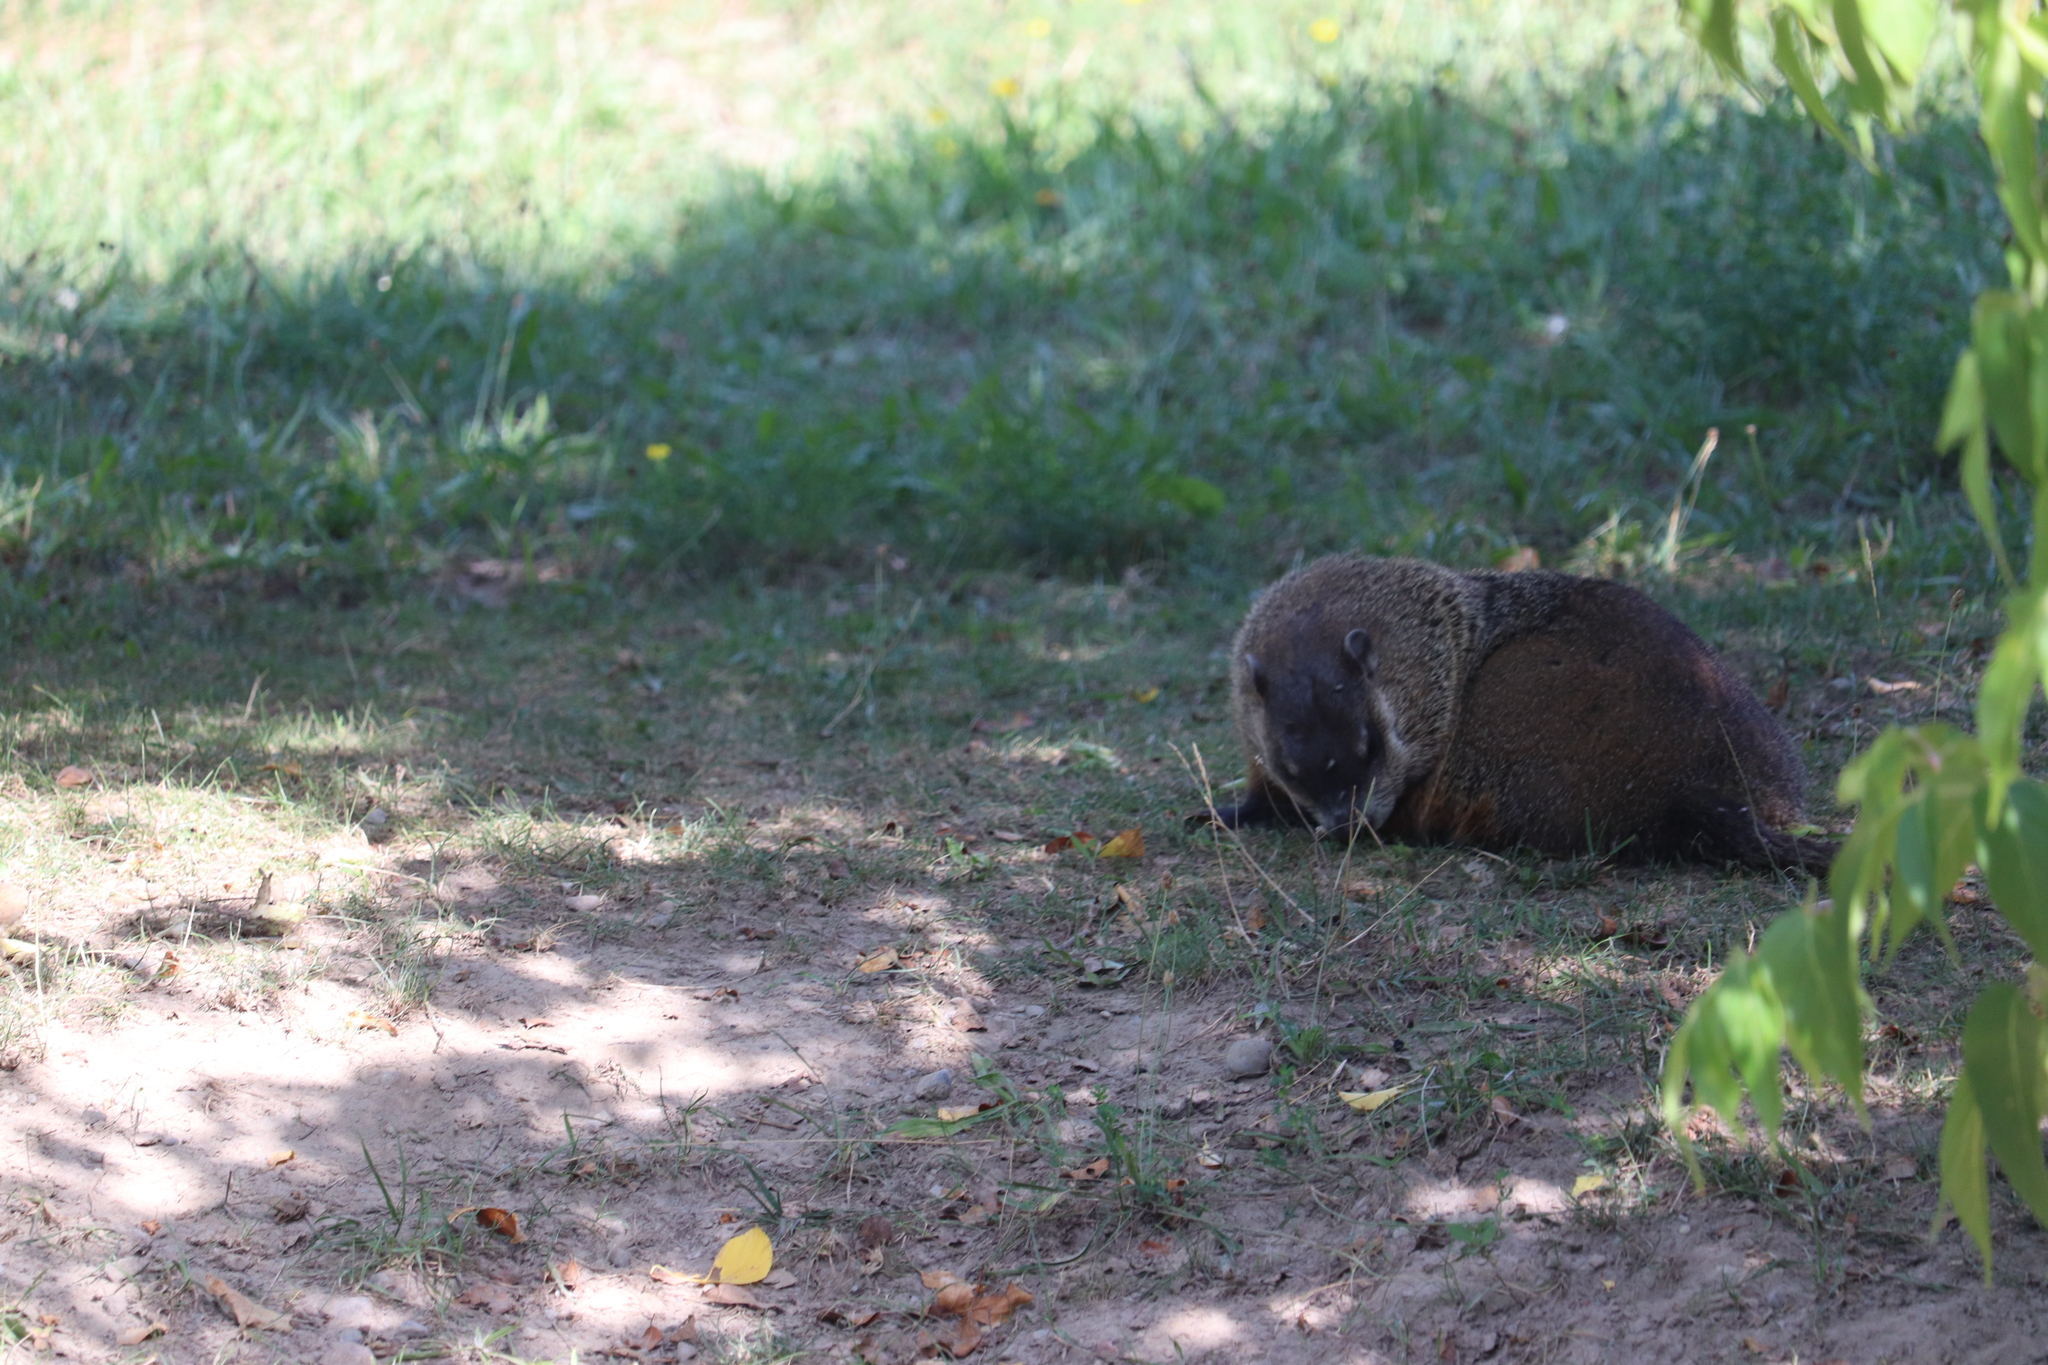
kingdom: Animalia
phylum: Chordata
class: Mammalia
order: Rodentia
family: Sciuridae
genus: Marmota
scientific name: Marmota monax
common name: Groundhog
